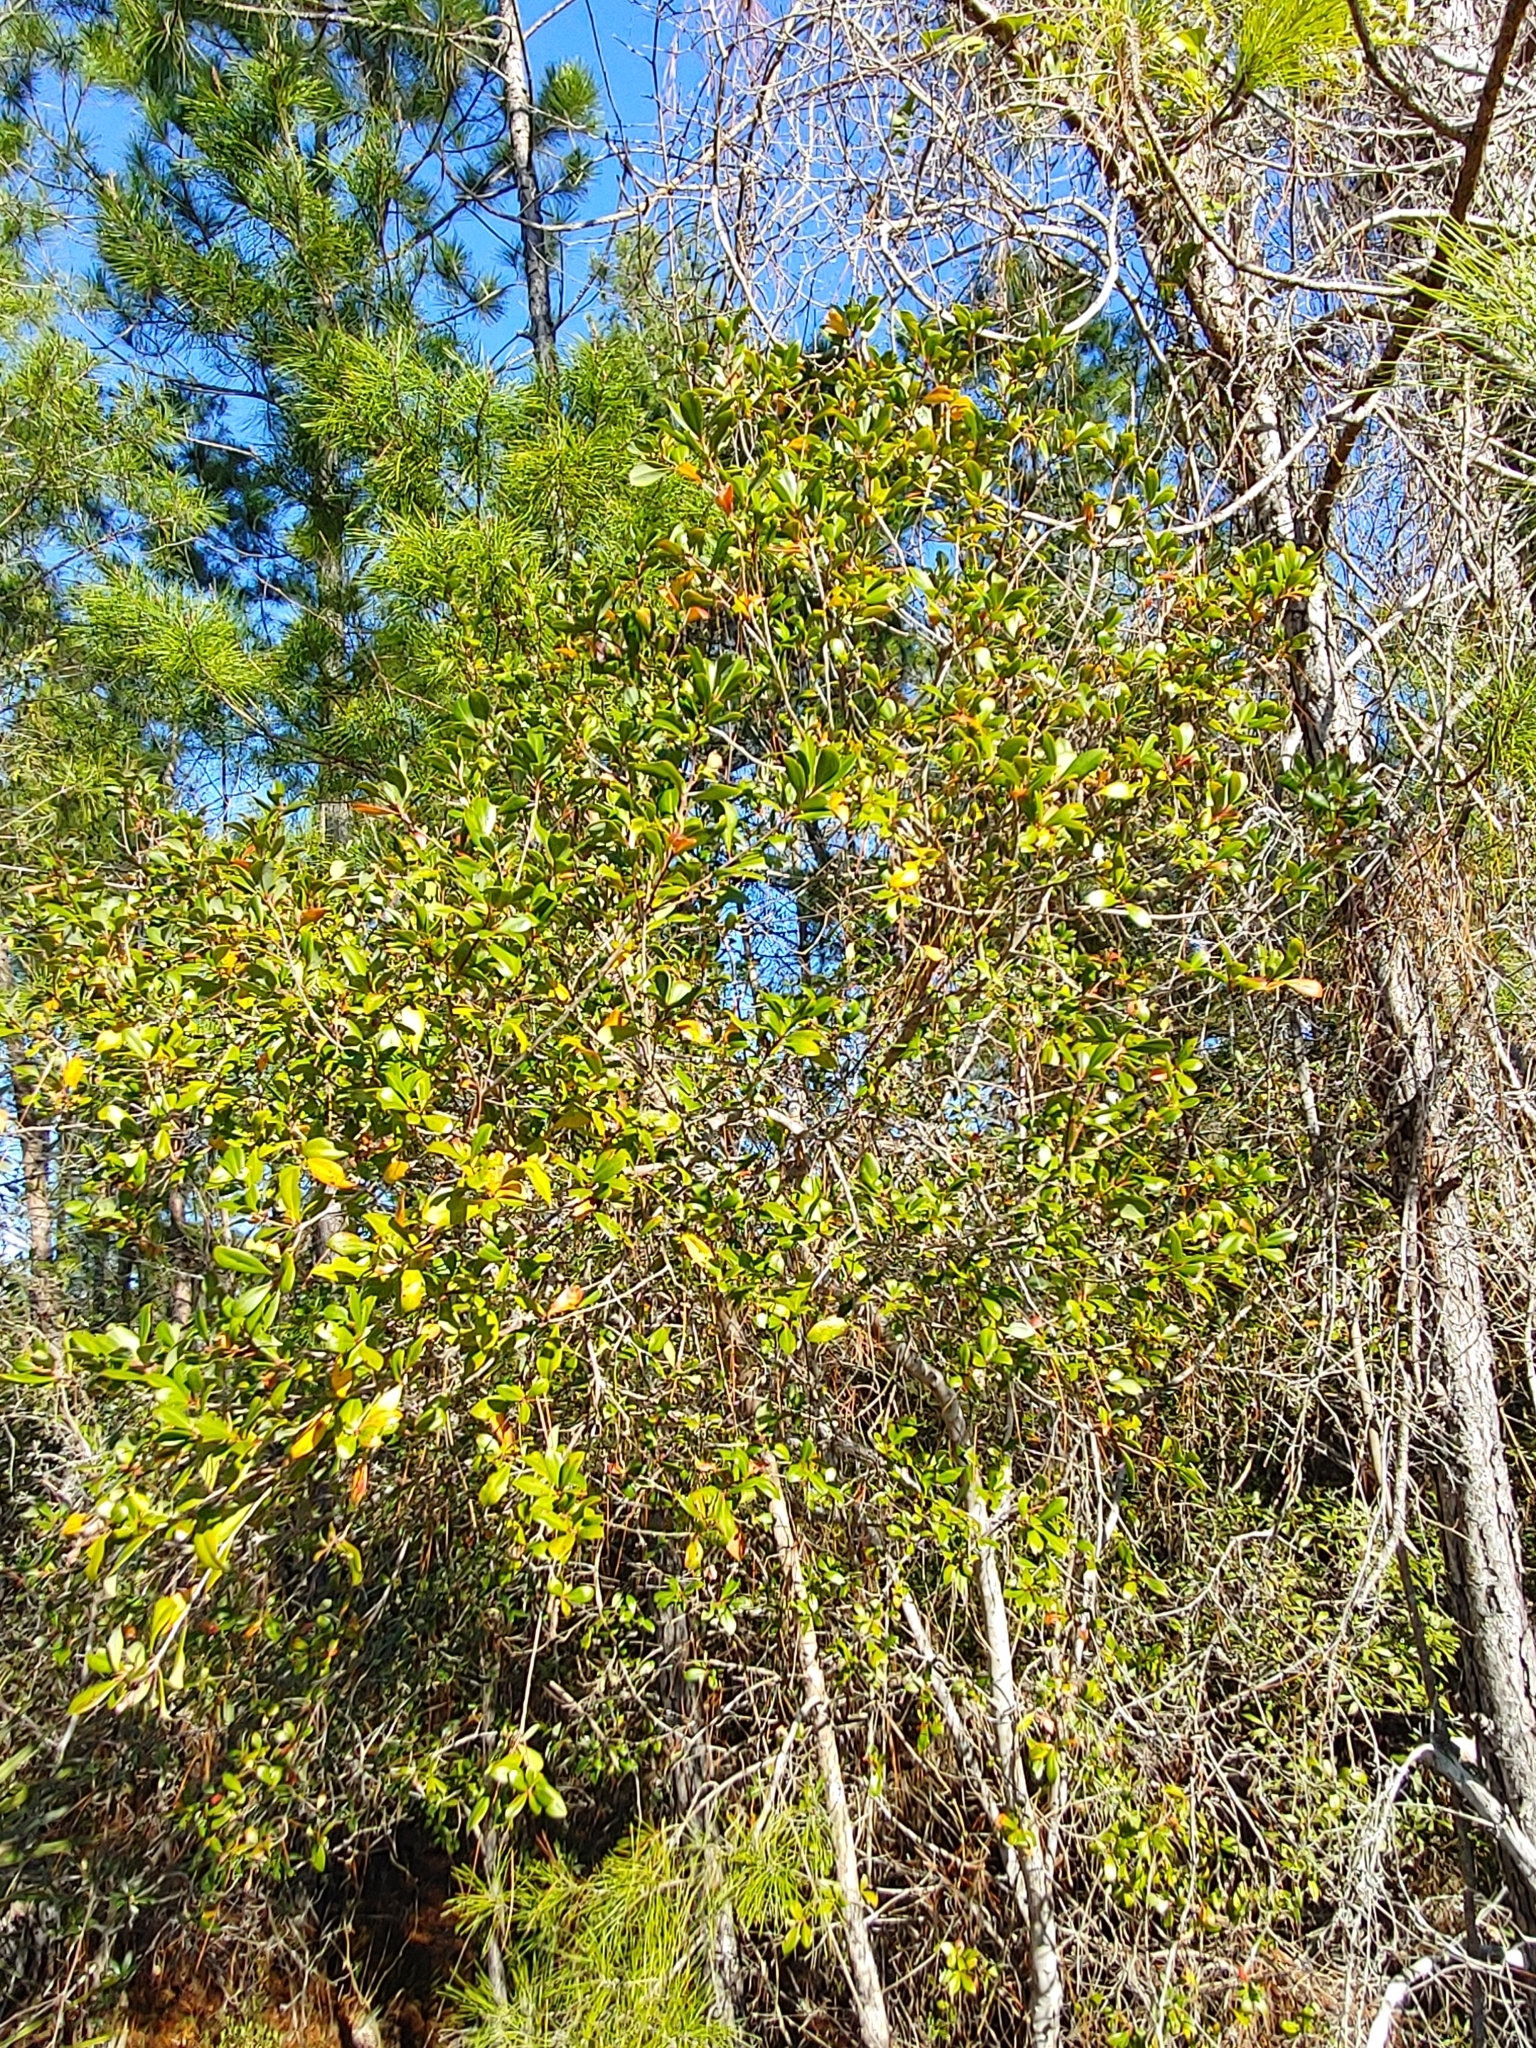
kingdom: Plantae
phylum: Tracheophyta
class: Magnoliopsida
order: Ericales
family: Cyrillaceae
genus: Cliftonia
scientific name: Cliftonia monophylla
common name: Titi
